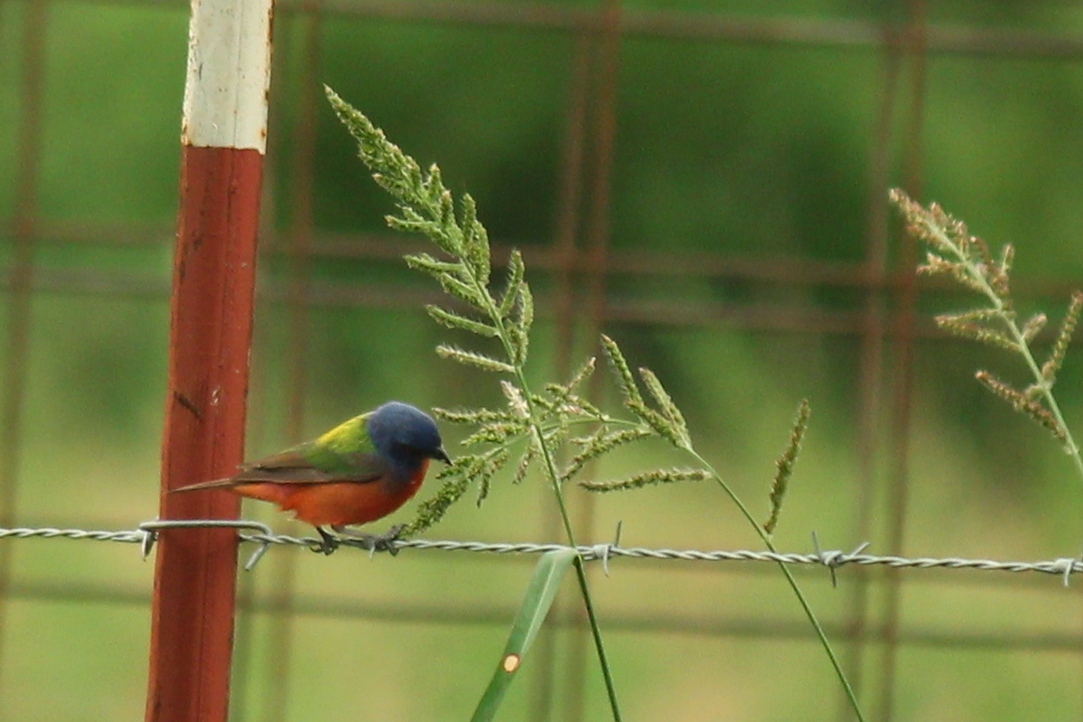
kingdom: Animalia
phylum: Chordata
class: Aves
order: Passeriformes
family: Cardinalidae
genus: Passerina
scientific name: Passerina ciris
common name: Painted bunting
